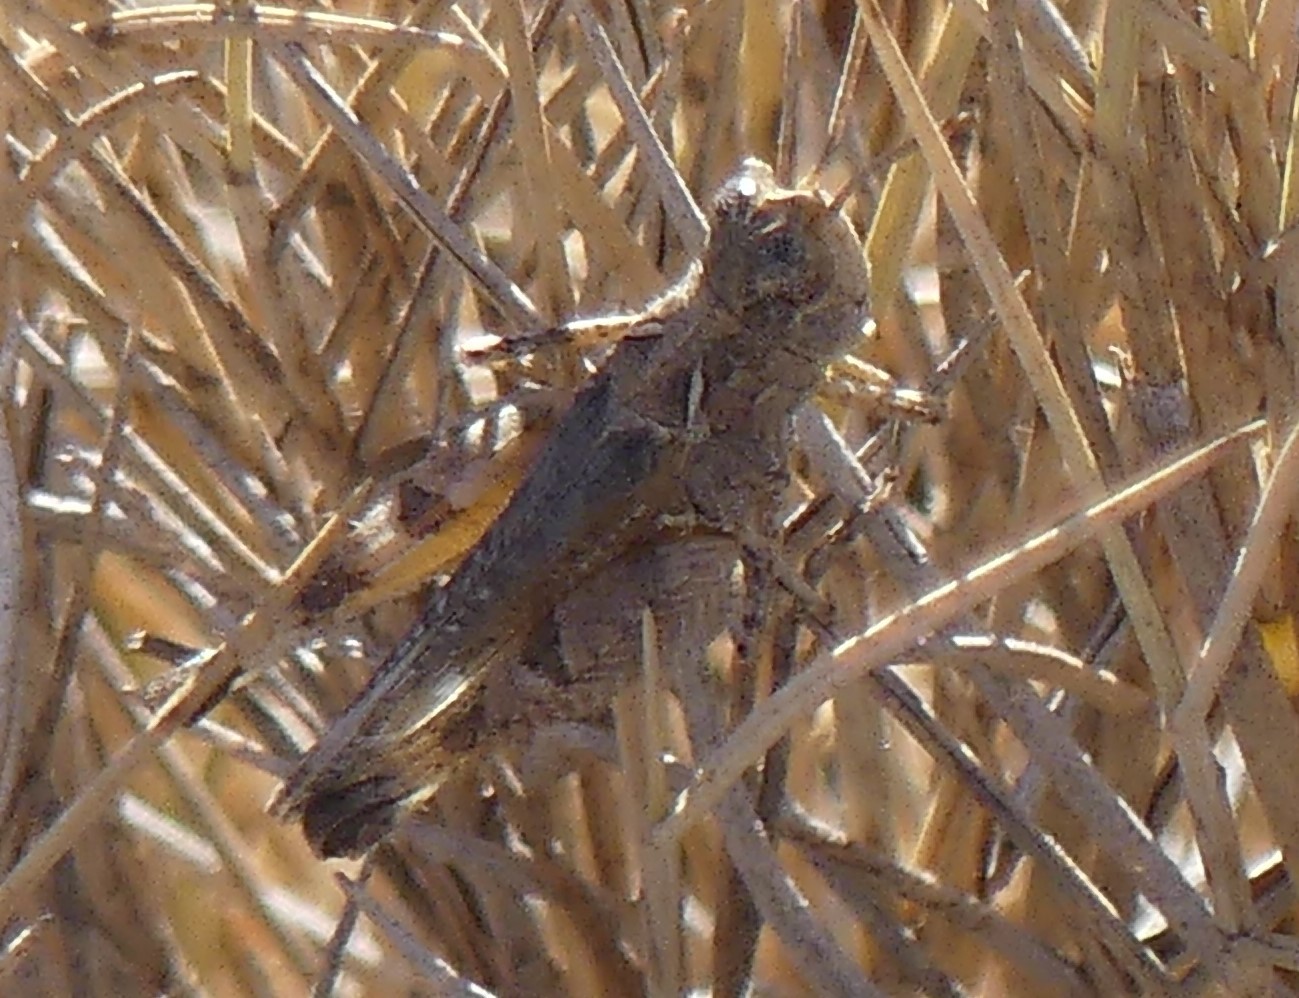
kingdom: Animalia
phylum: Arthropoda
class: Insecta
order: Orthoptera
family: Acrididae
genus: Dociostaurus
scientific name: Dociostaurus genei
